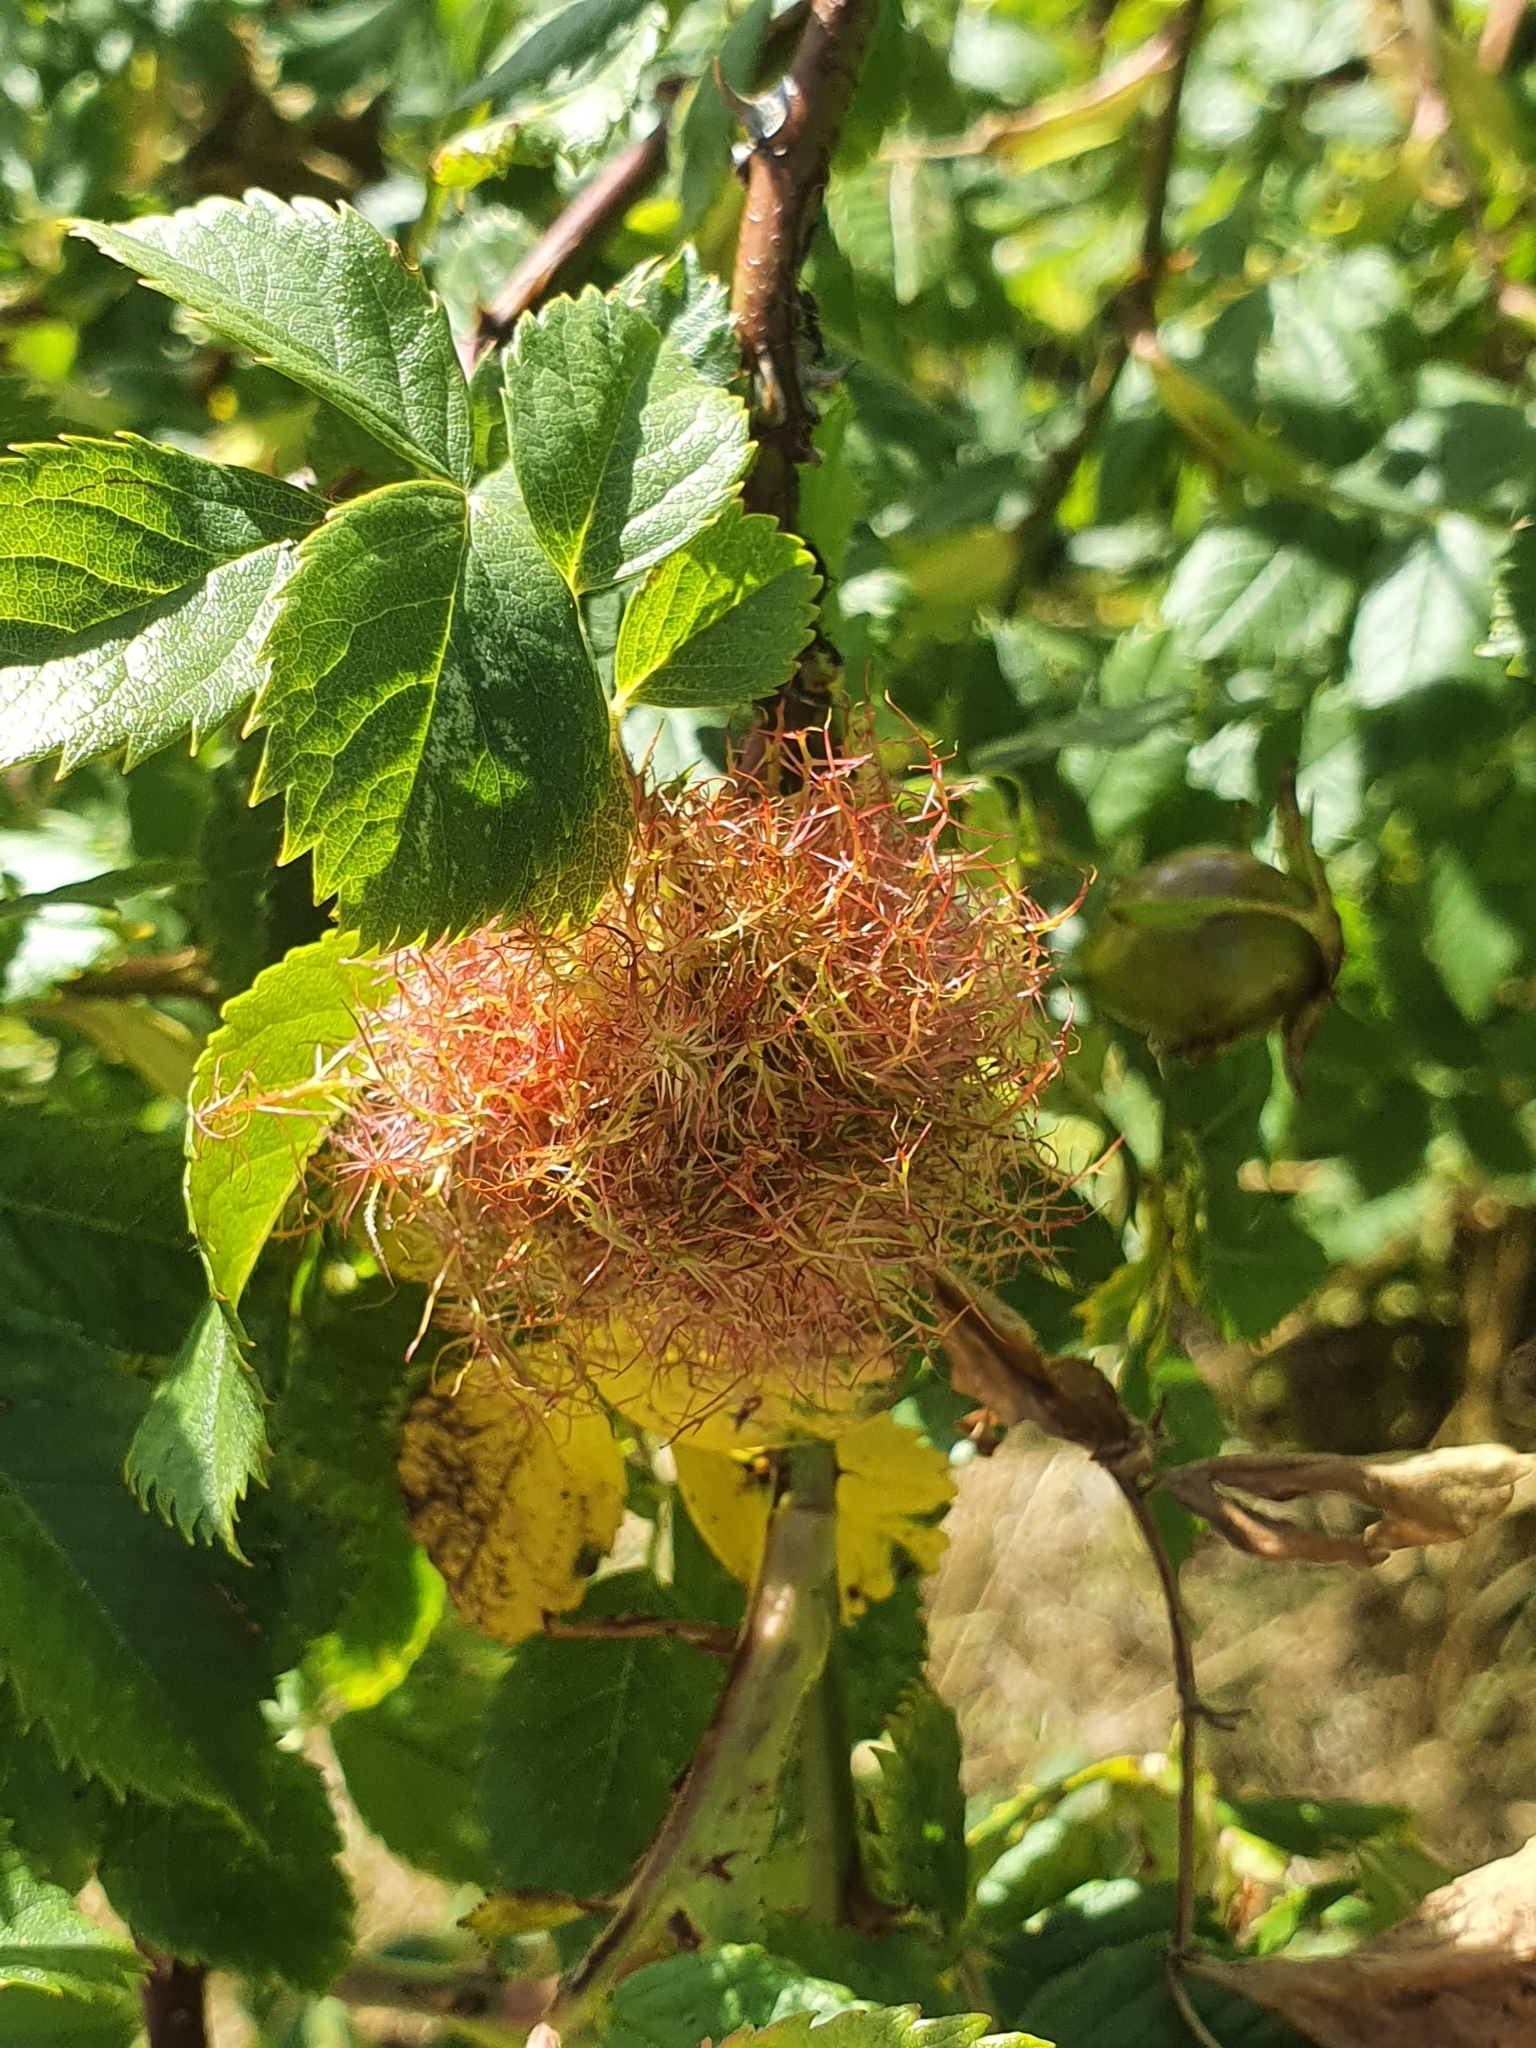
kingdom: Animalia
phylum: Arthropoda
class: Insecta
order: Hymenoptera
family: Cynipidae
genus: Diplolepis
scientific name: Diplolepis rosae
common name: Bedeguar gall
